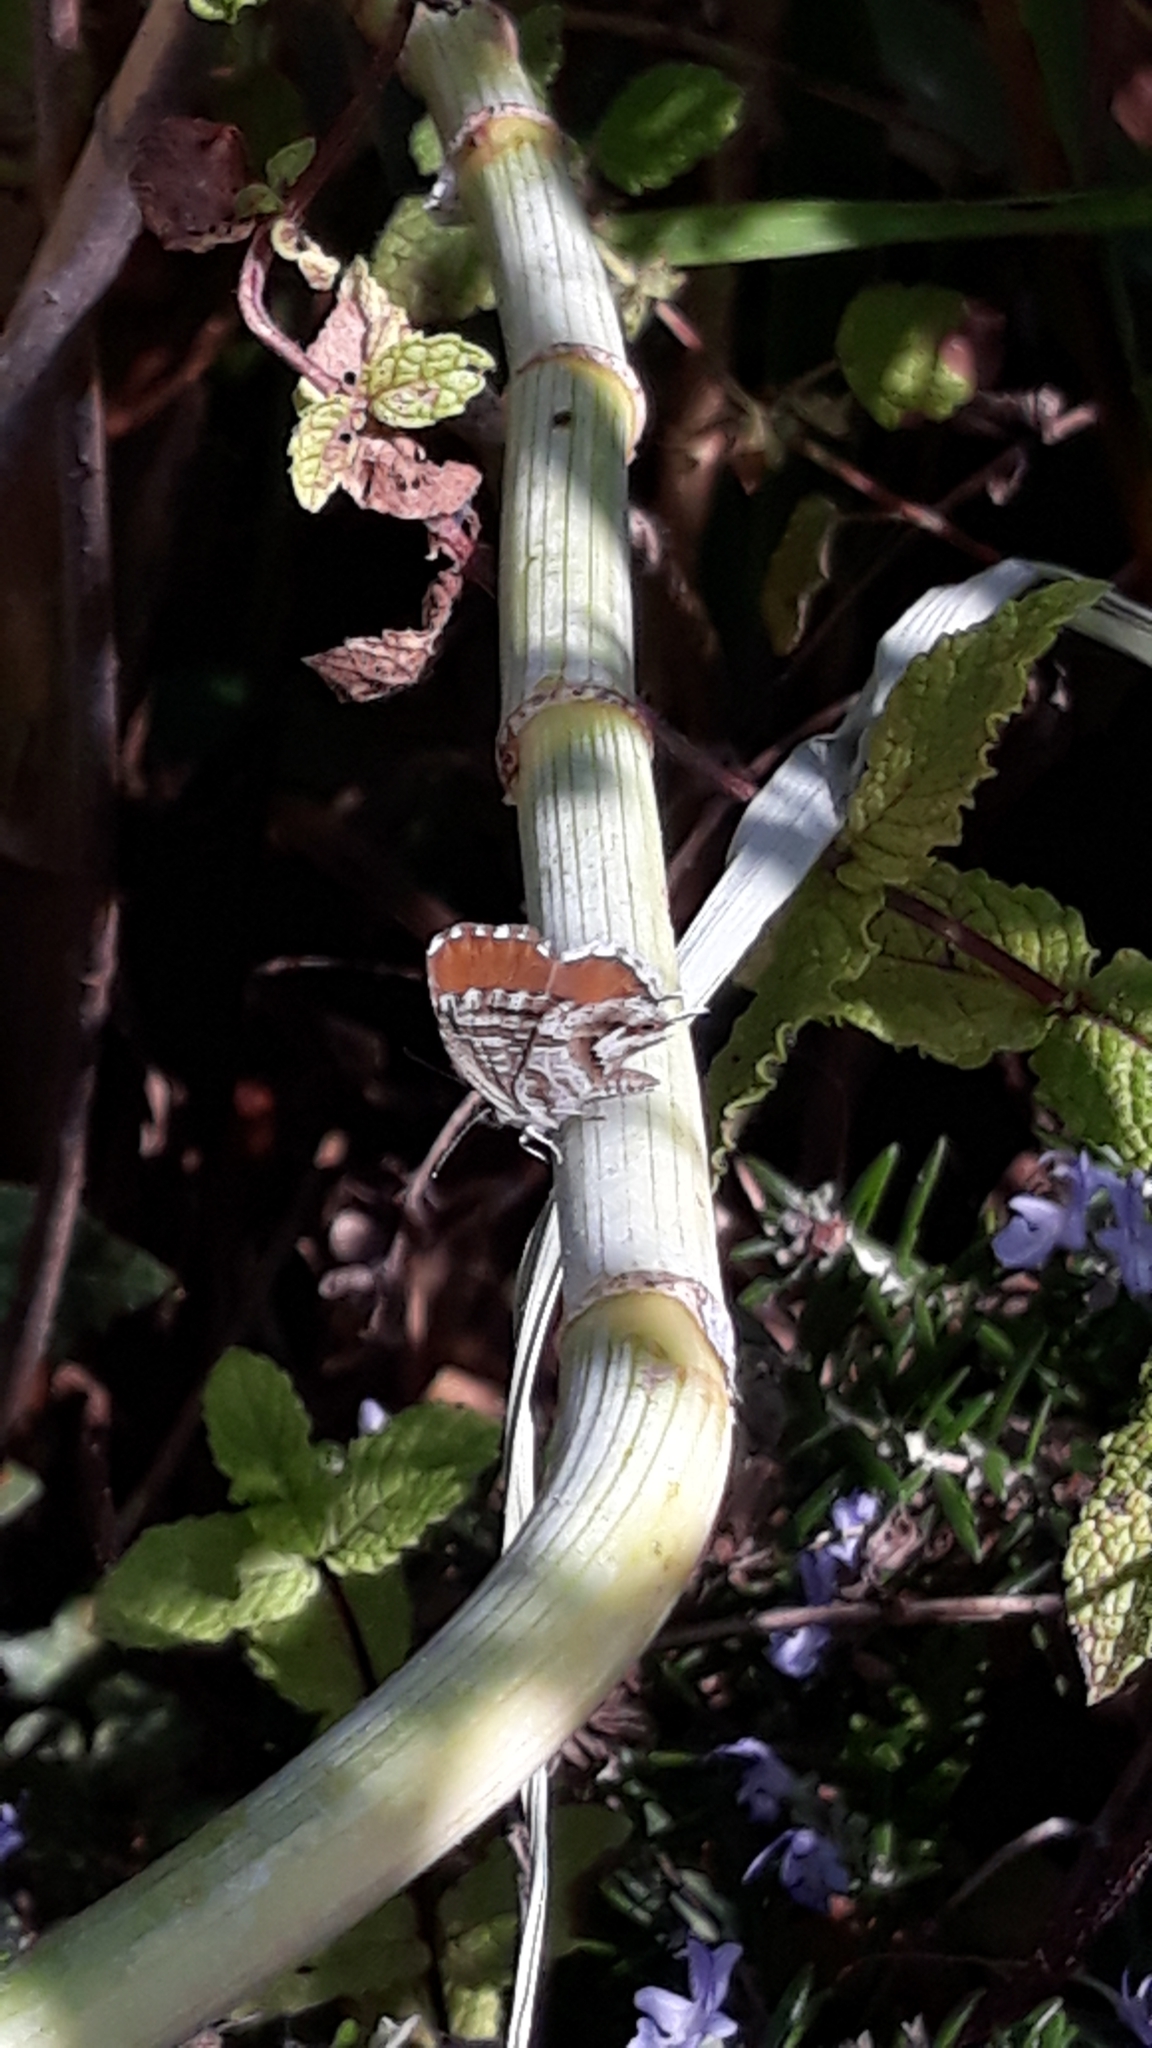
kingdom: Animalia
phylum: Arthropoda
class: Insecta
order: Lepidoptera
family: Lycaenidae
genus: Cacyreus
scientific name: Cacyreus marshalli
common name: Geranium bronze
